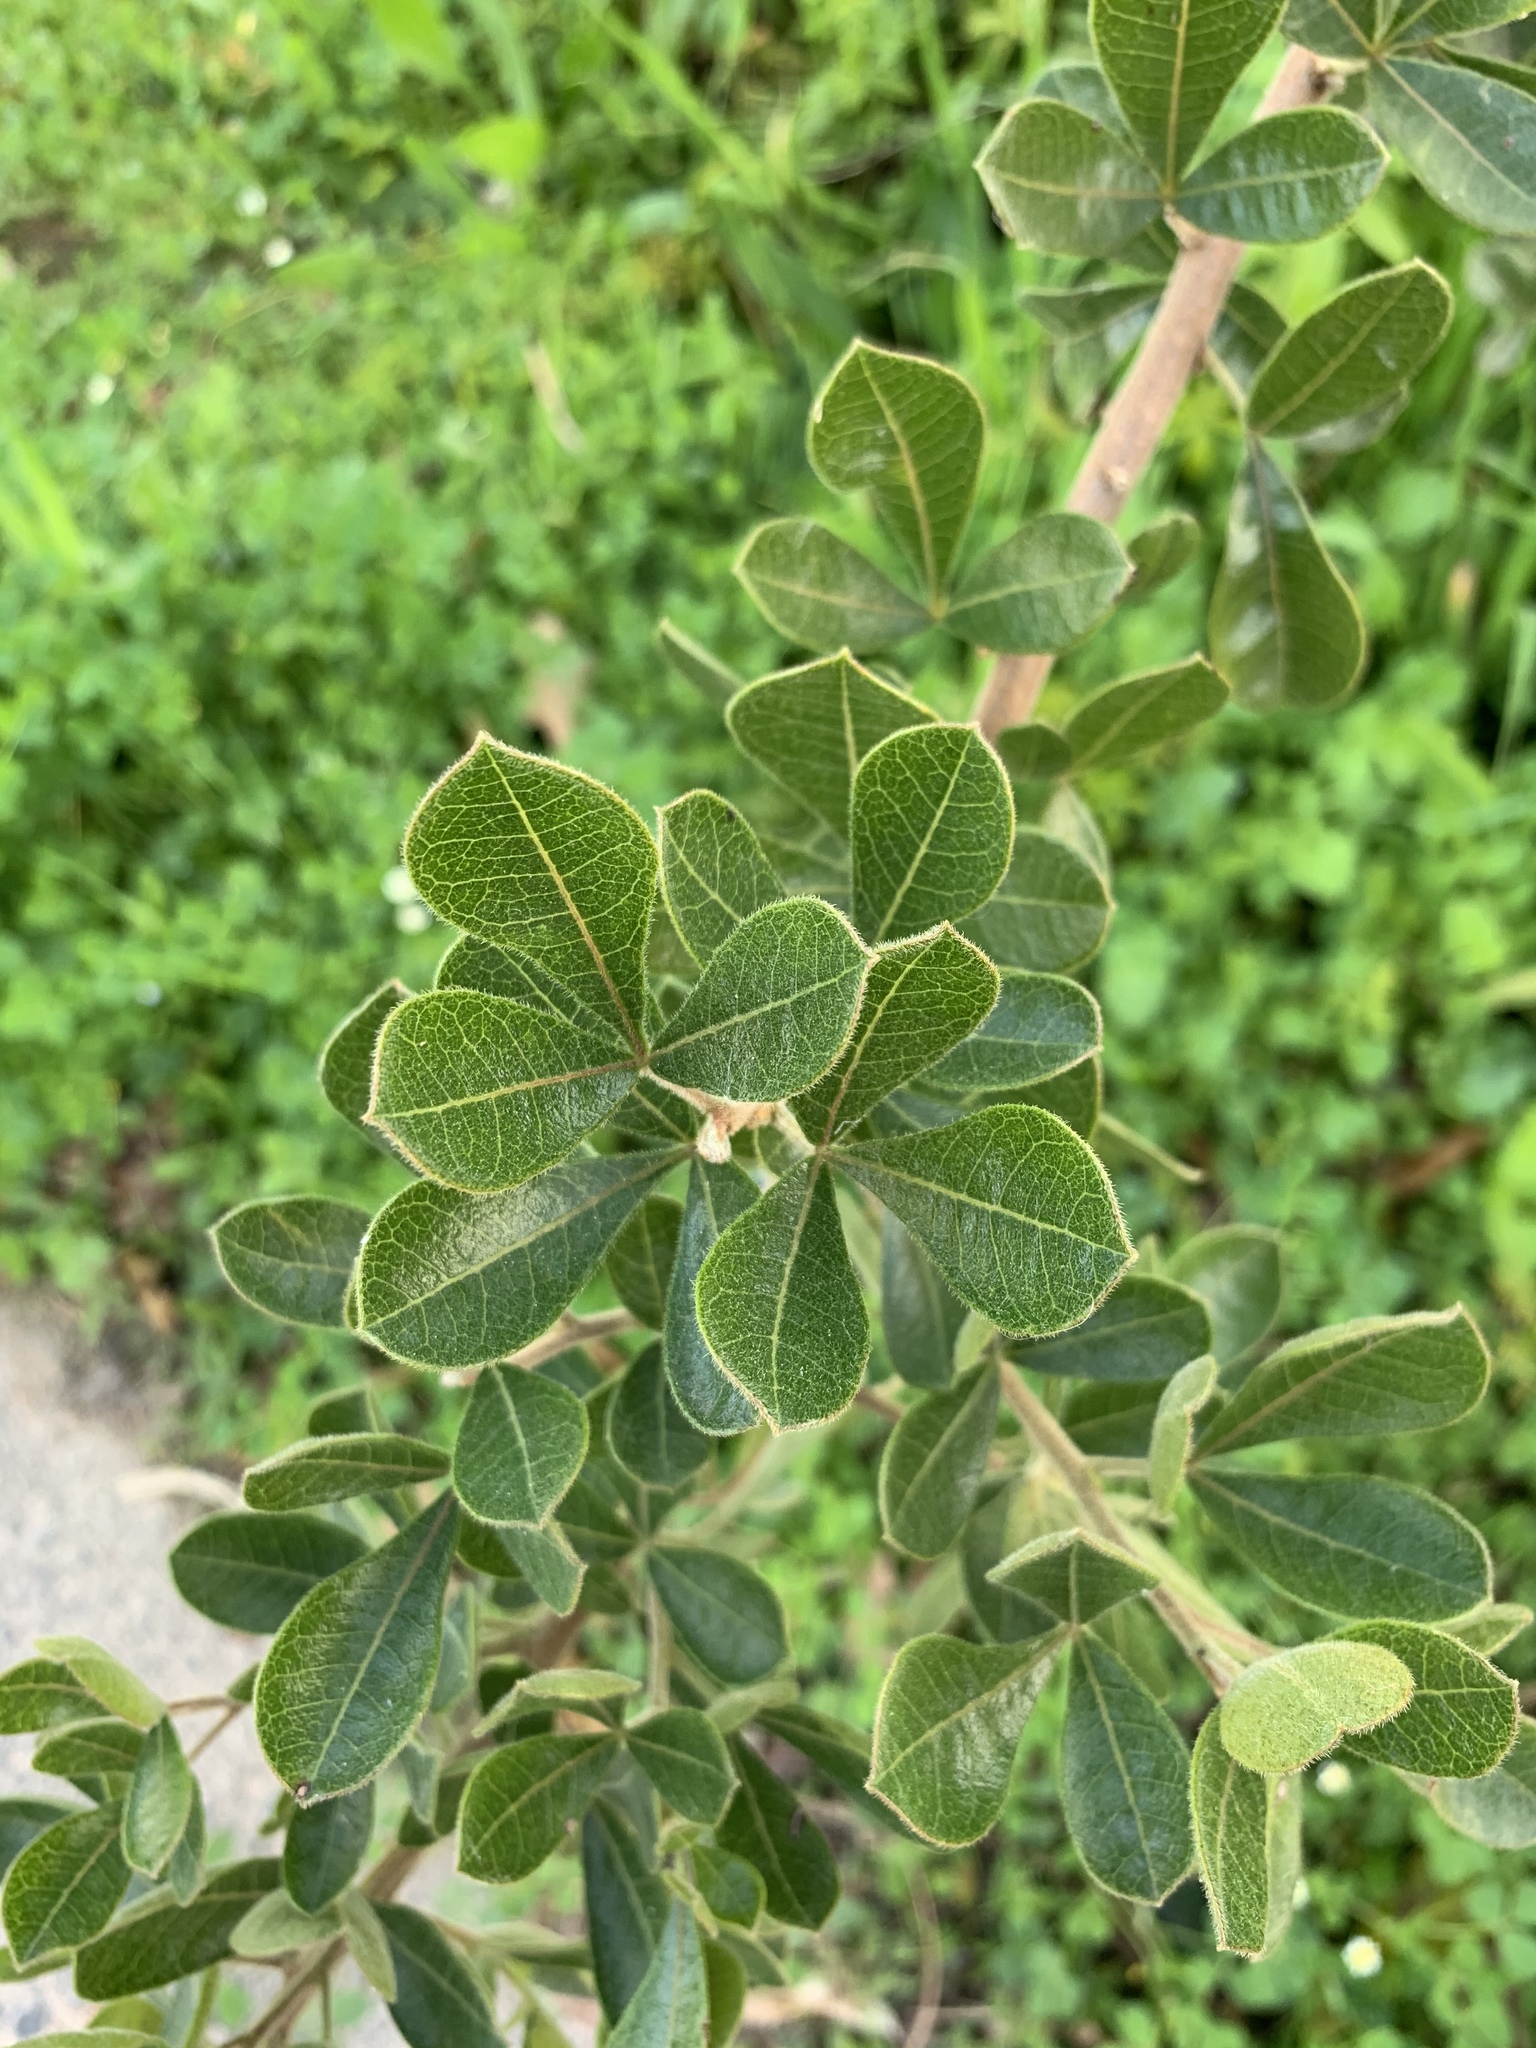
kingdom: Plantae
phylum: Tracheophyta
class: Magnoliopsida
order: Sapindales
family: Anacardiaceae
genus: Searsia
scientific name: Searsia laevigata
